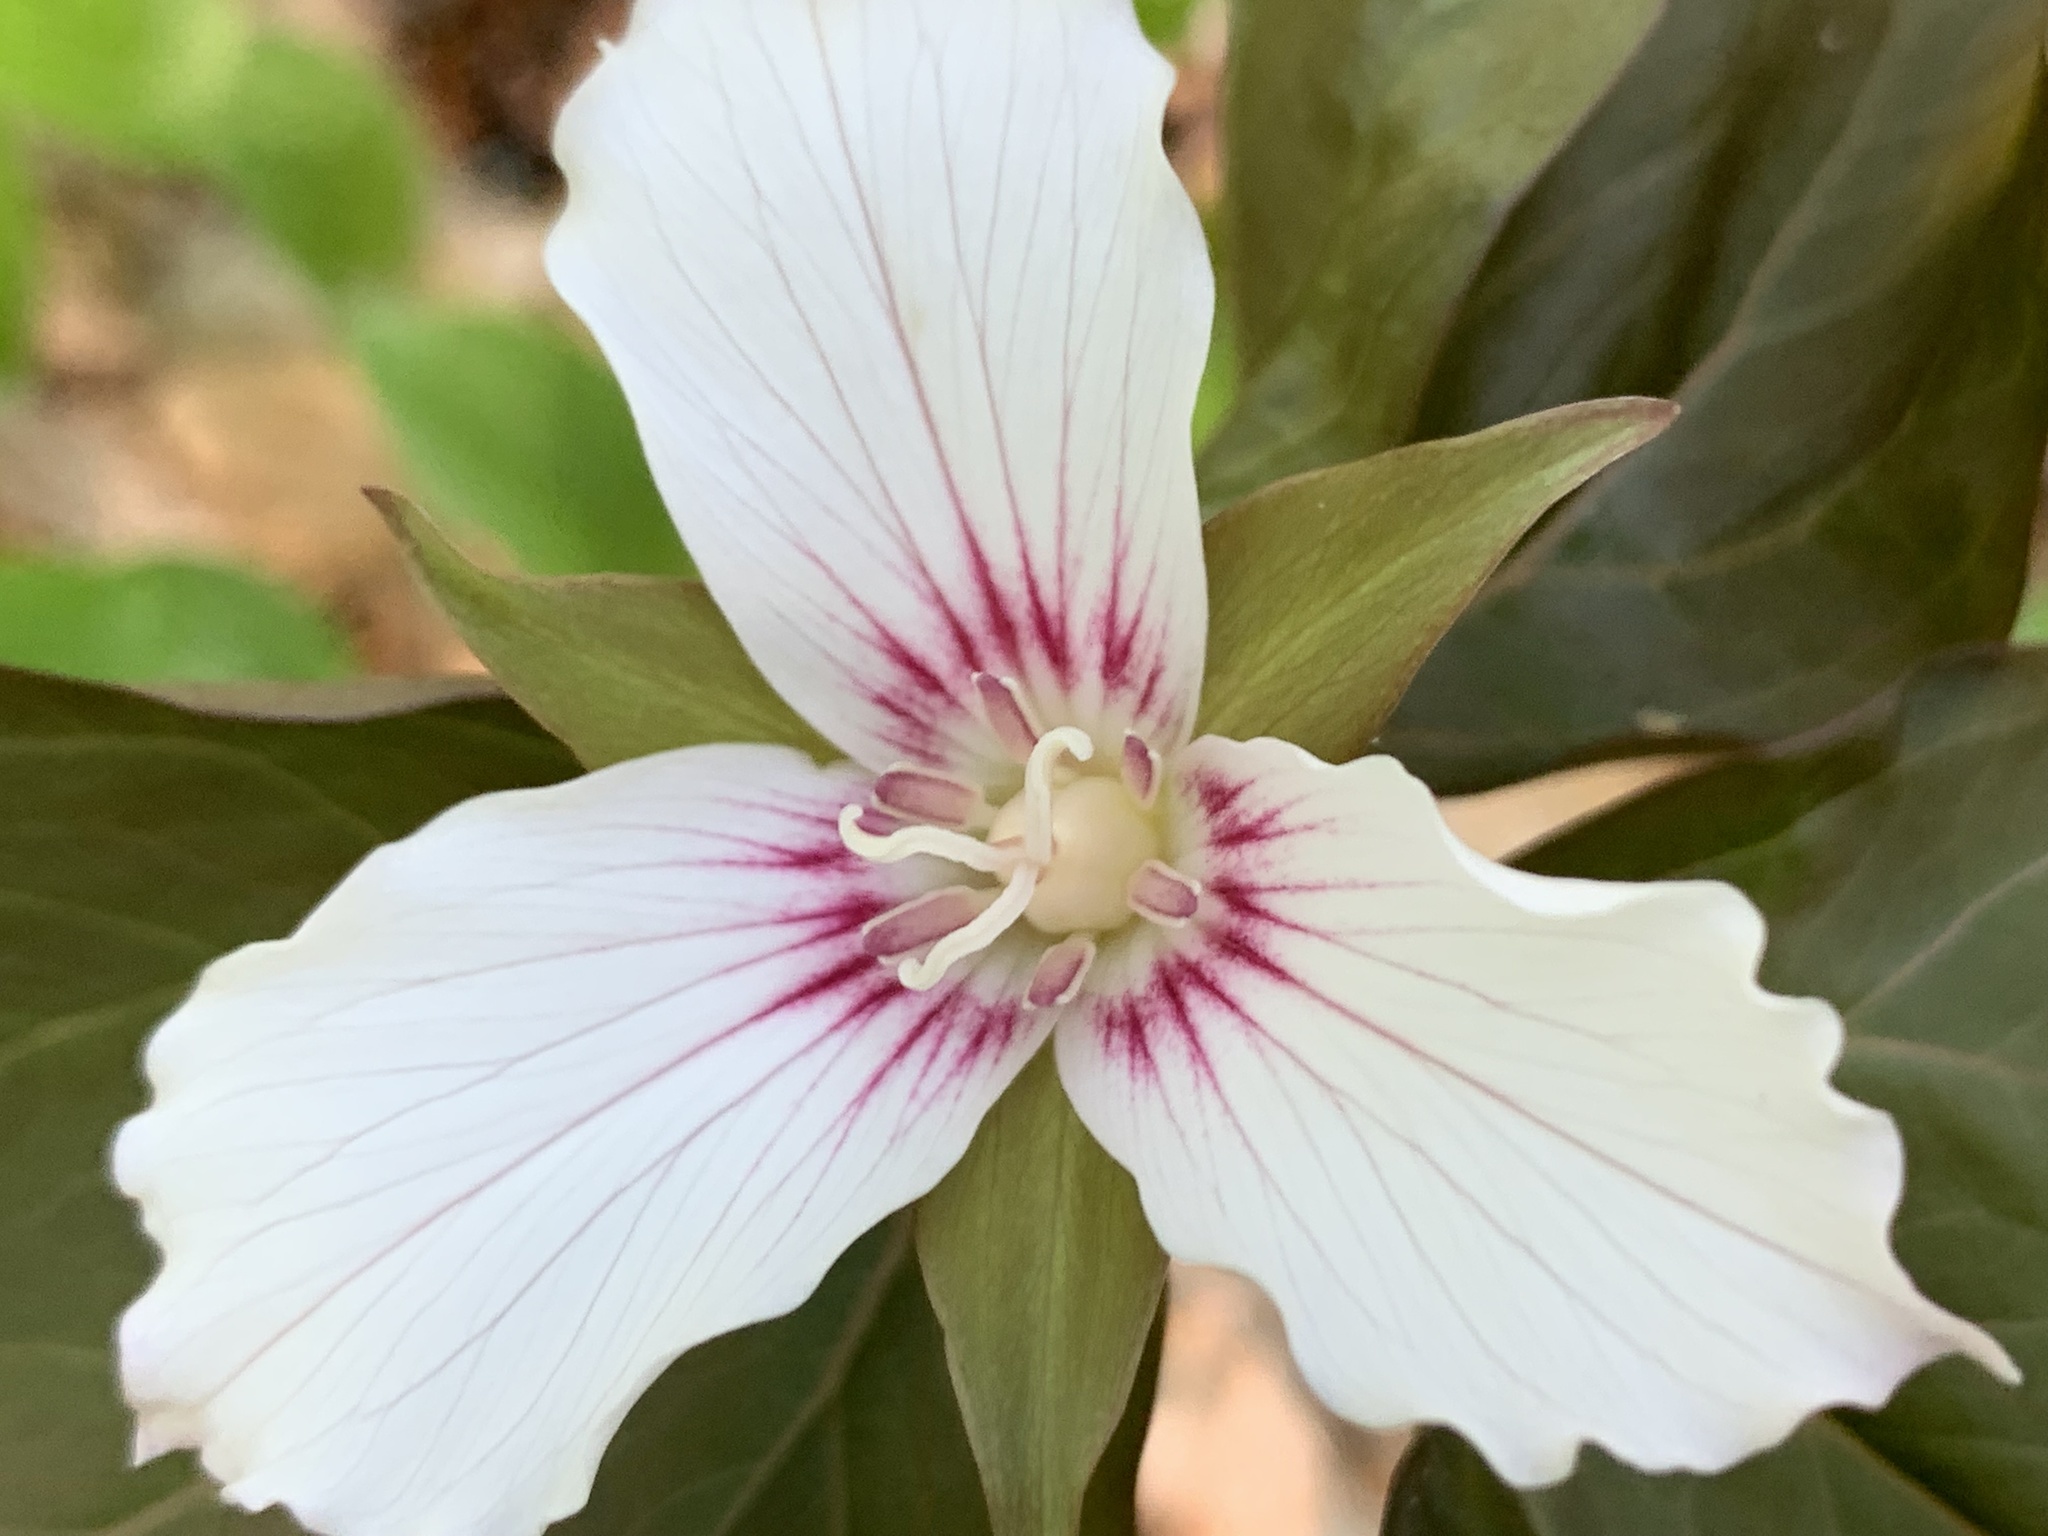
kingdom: Plantae
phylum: Tracheophyta
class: Liliopsida
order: Liliales
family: Melanthiaceae
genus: Trillium
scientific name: Trillium undulatum
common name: Paint trillium
